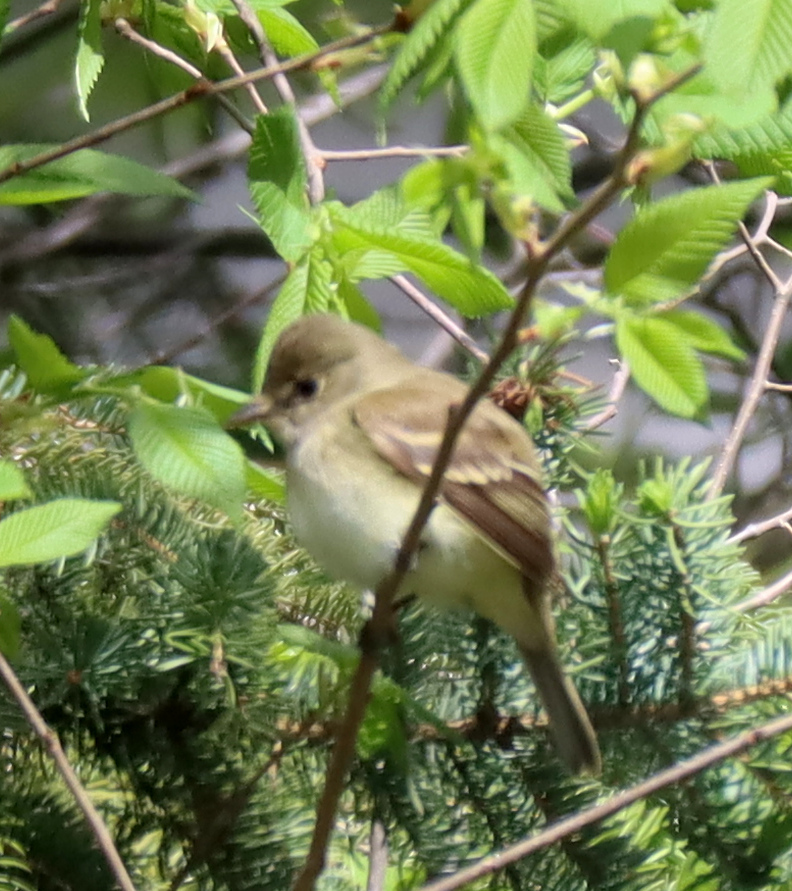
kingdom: Animalia
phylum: Chordata
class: Aves
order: Passeriformes
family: Tyrannidae
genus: Empidonax
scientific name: Empidonax alnorum
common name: Alder flycatcher
